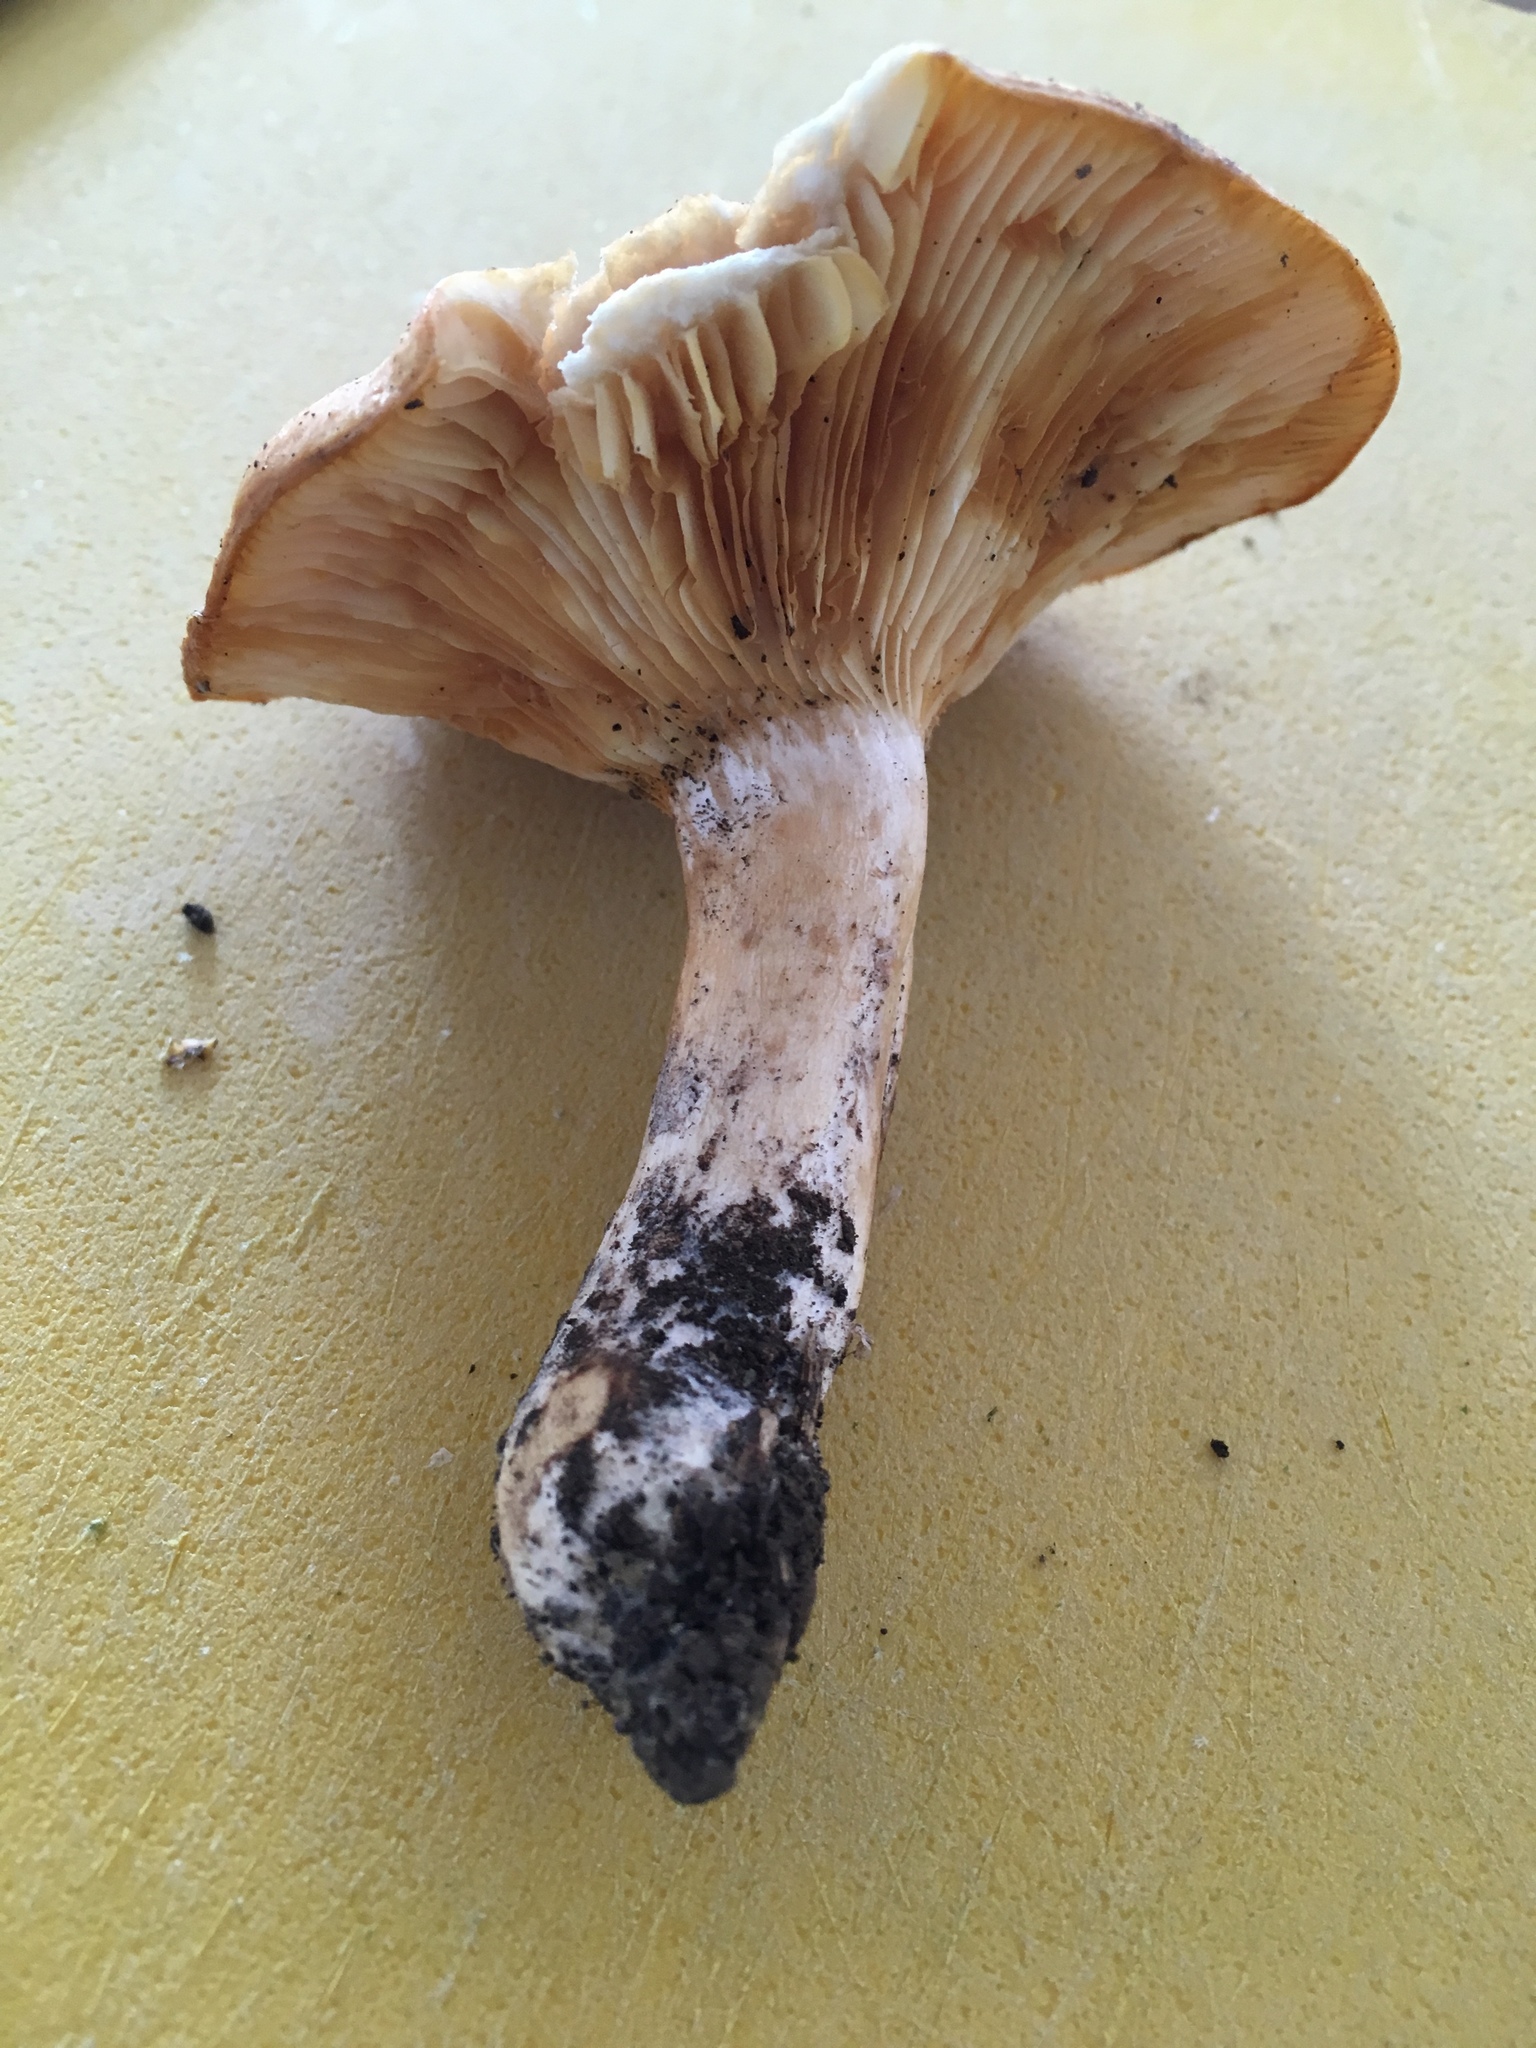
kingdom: Fungi
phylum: Basidiomycota
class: Agaricomycetes
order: Russulales
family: Russulaceae
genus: Lactarius
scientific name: Lactarius peckii
